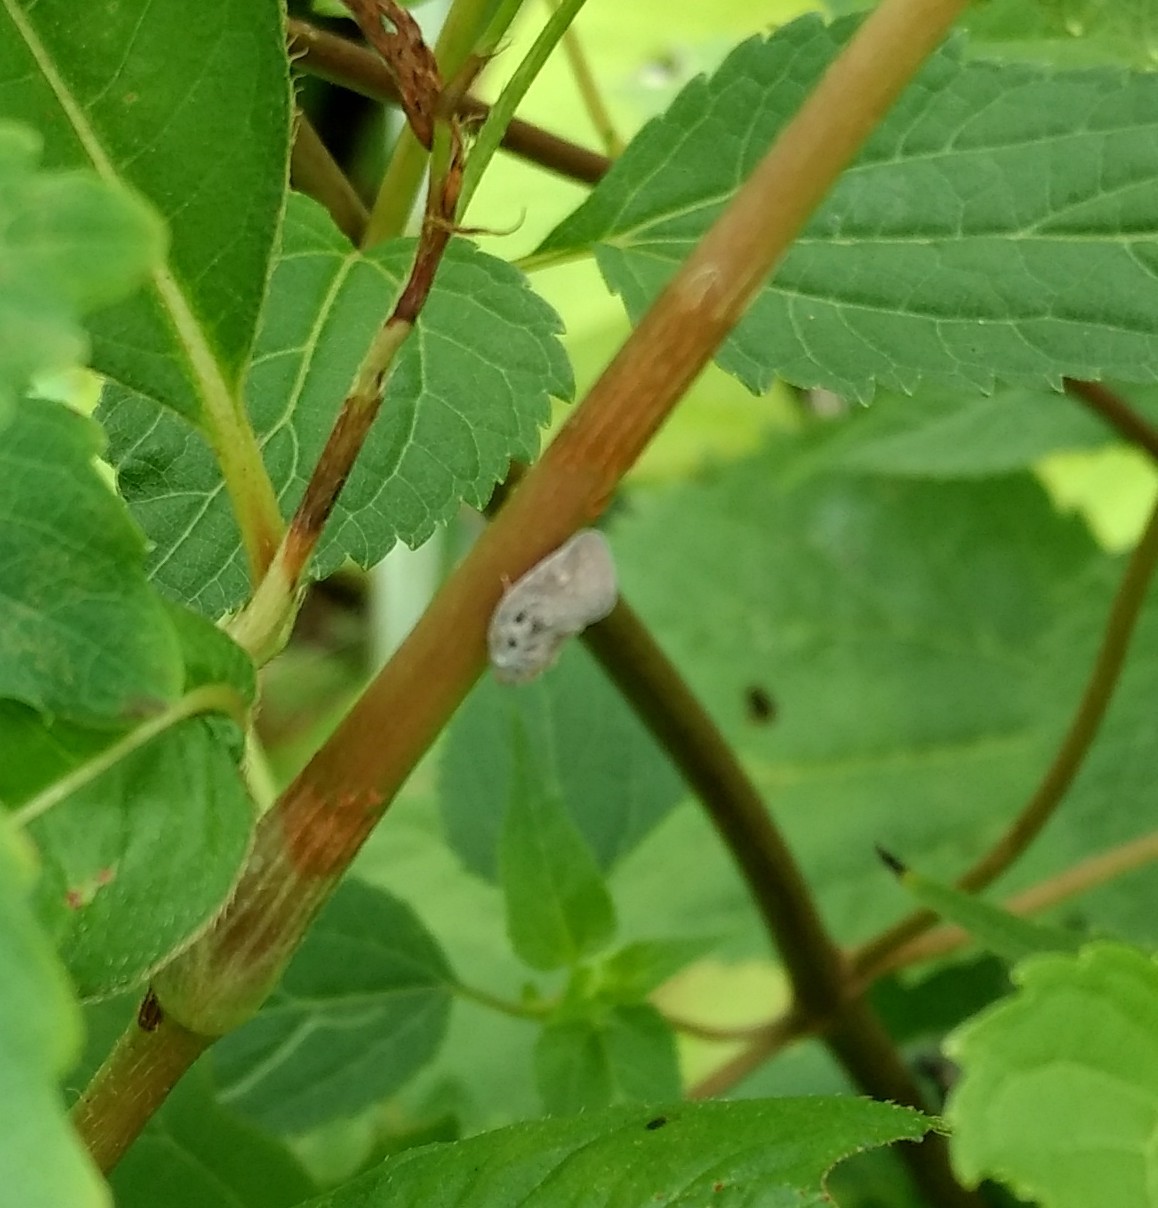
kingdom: Animalia
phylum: Arthropoda
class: Insecta
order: Hemiptera
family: Flatidae
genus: Metcalfa
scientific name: Metcalfa pruinosa
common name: Citrus flatid planthopper
